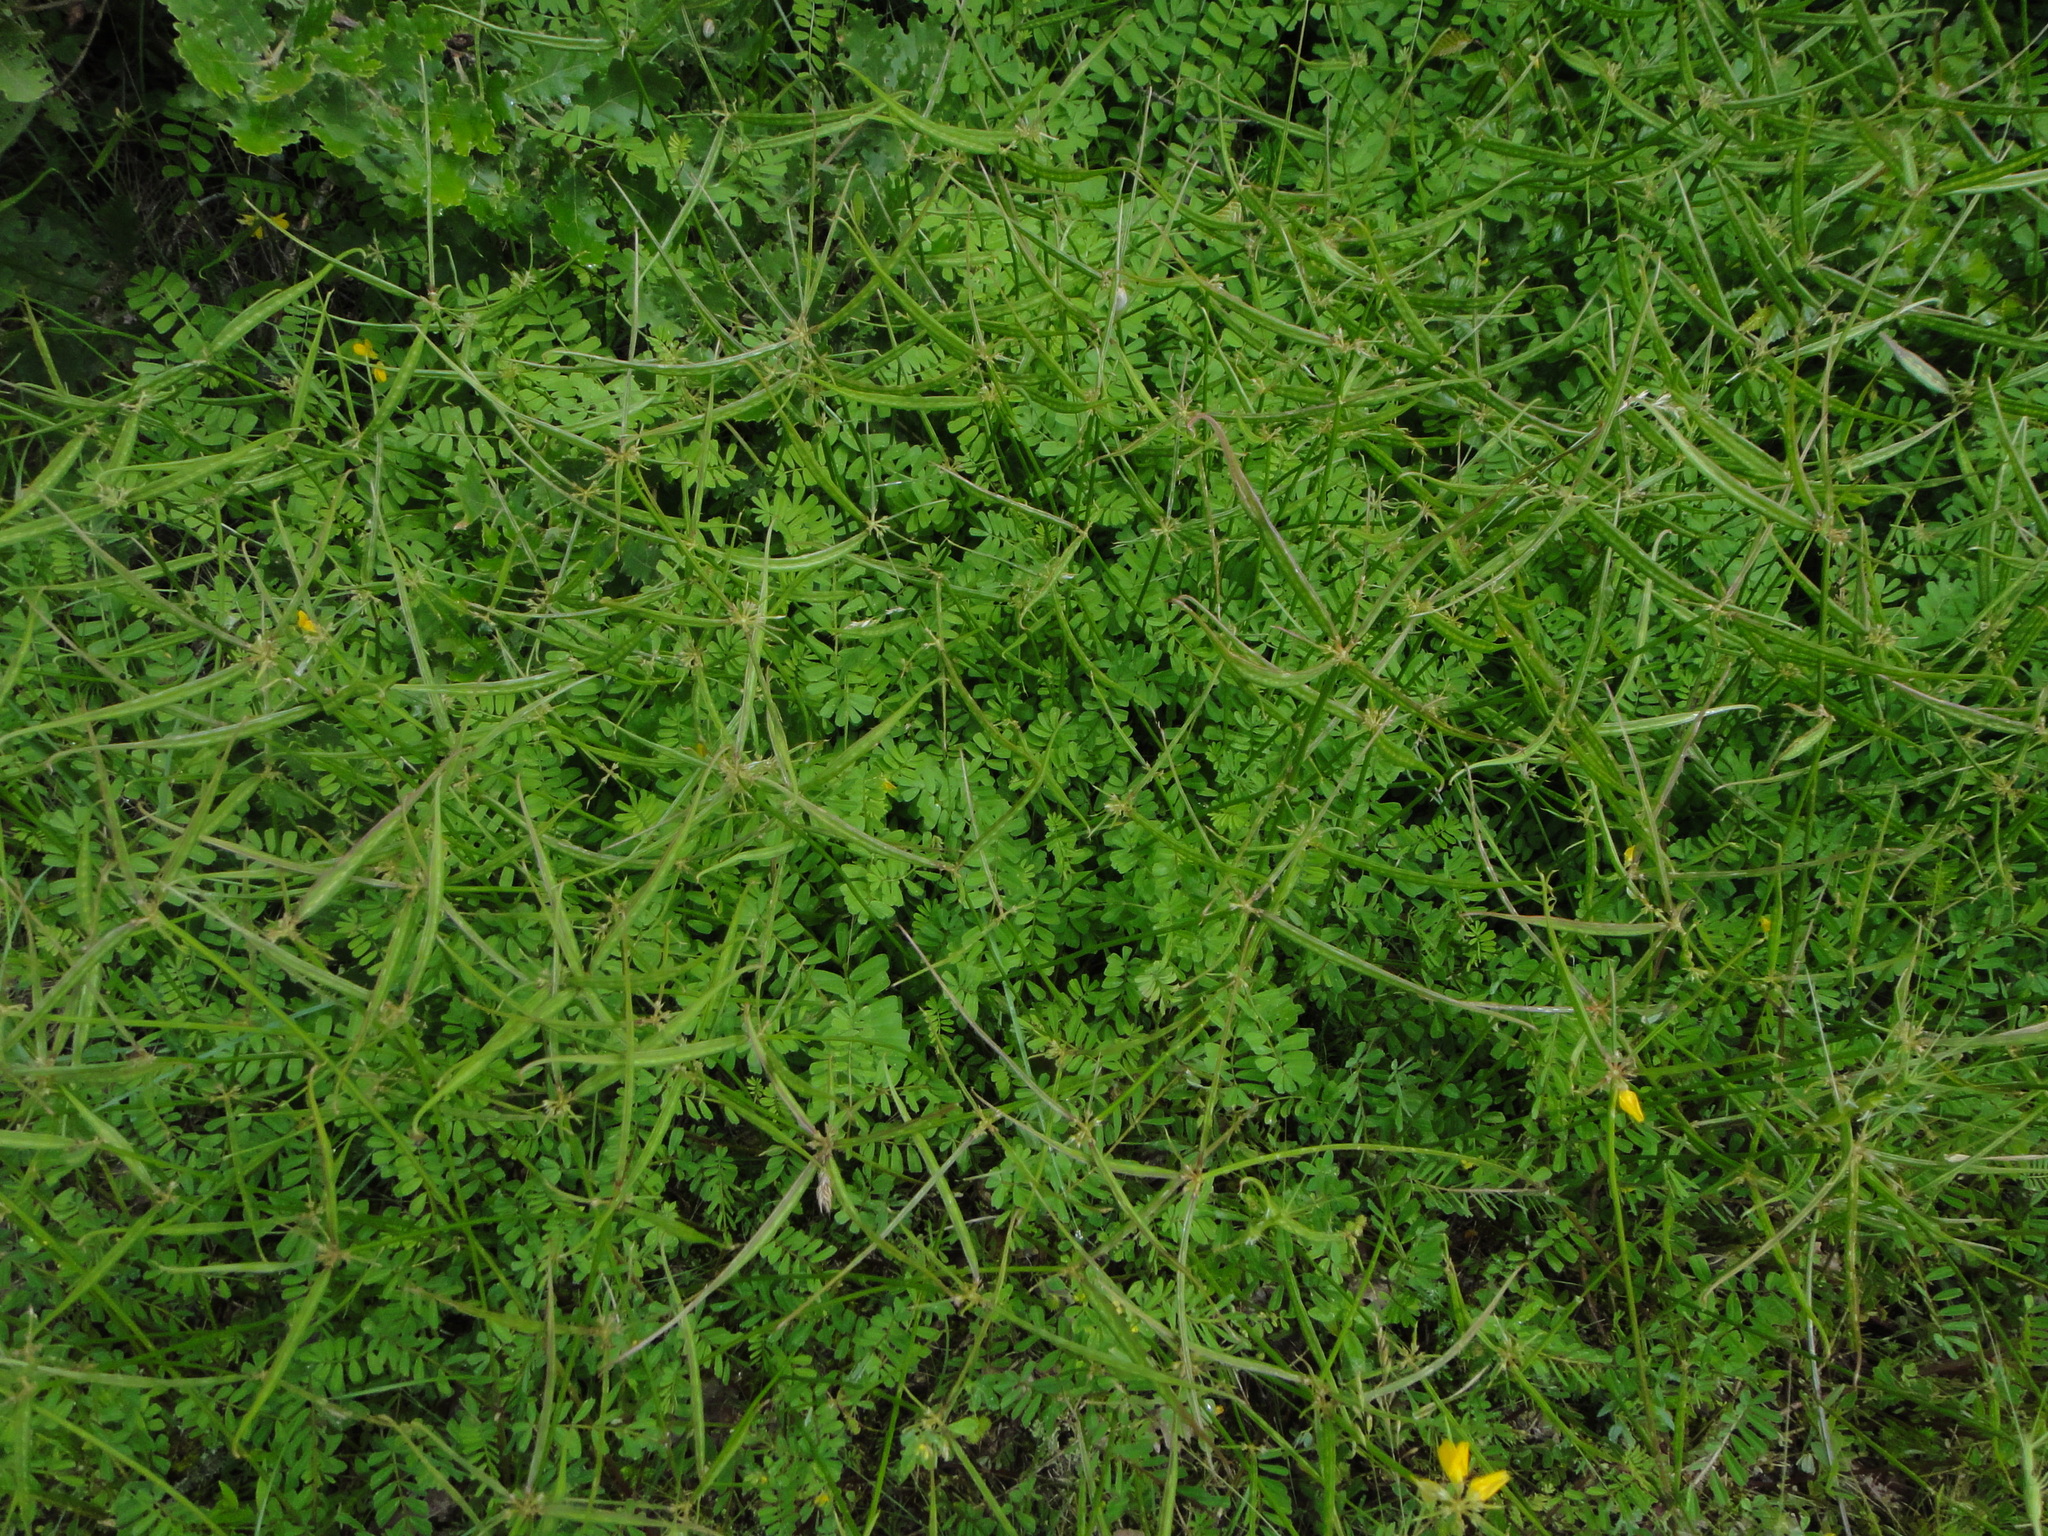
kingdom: Plantae
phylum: Tracheophyta
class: Magnoliopsida
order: Fabales
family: Fabaceae
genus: Coronilla
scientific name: Coronilla securidaca
